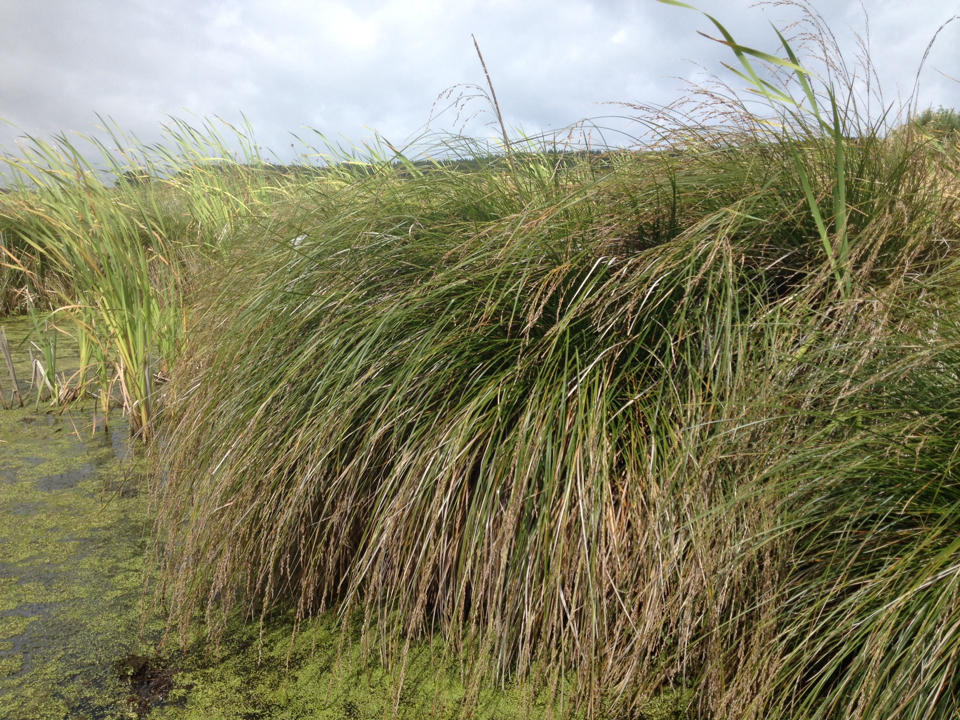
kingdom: Plantae
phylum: Tracheophyta
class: Liliopsida
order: Poales
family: Cyperaceae
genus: Carex
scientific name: Carex secta
